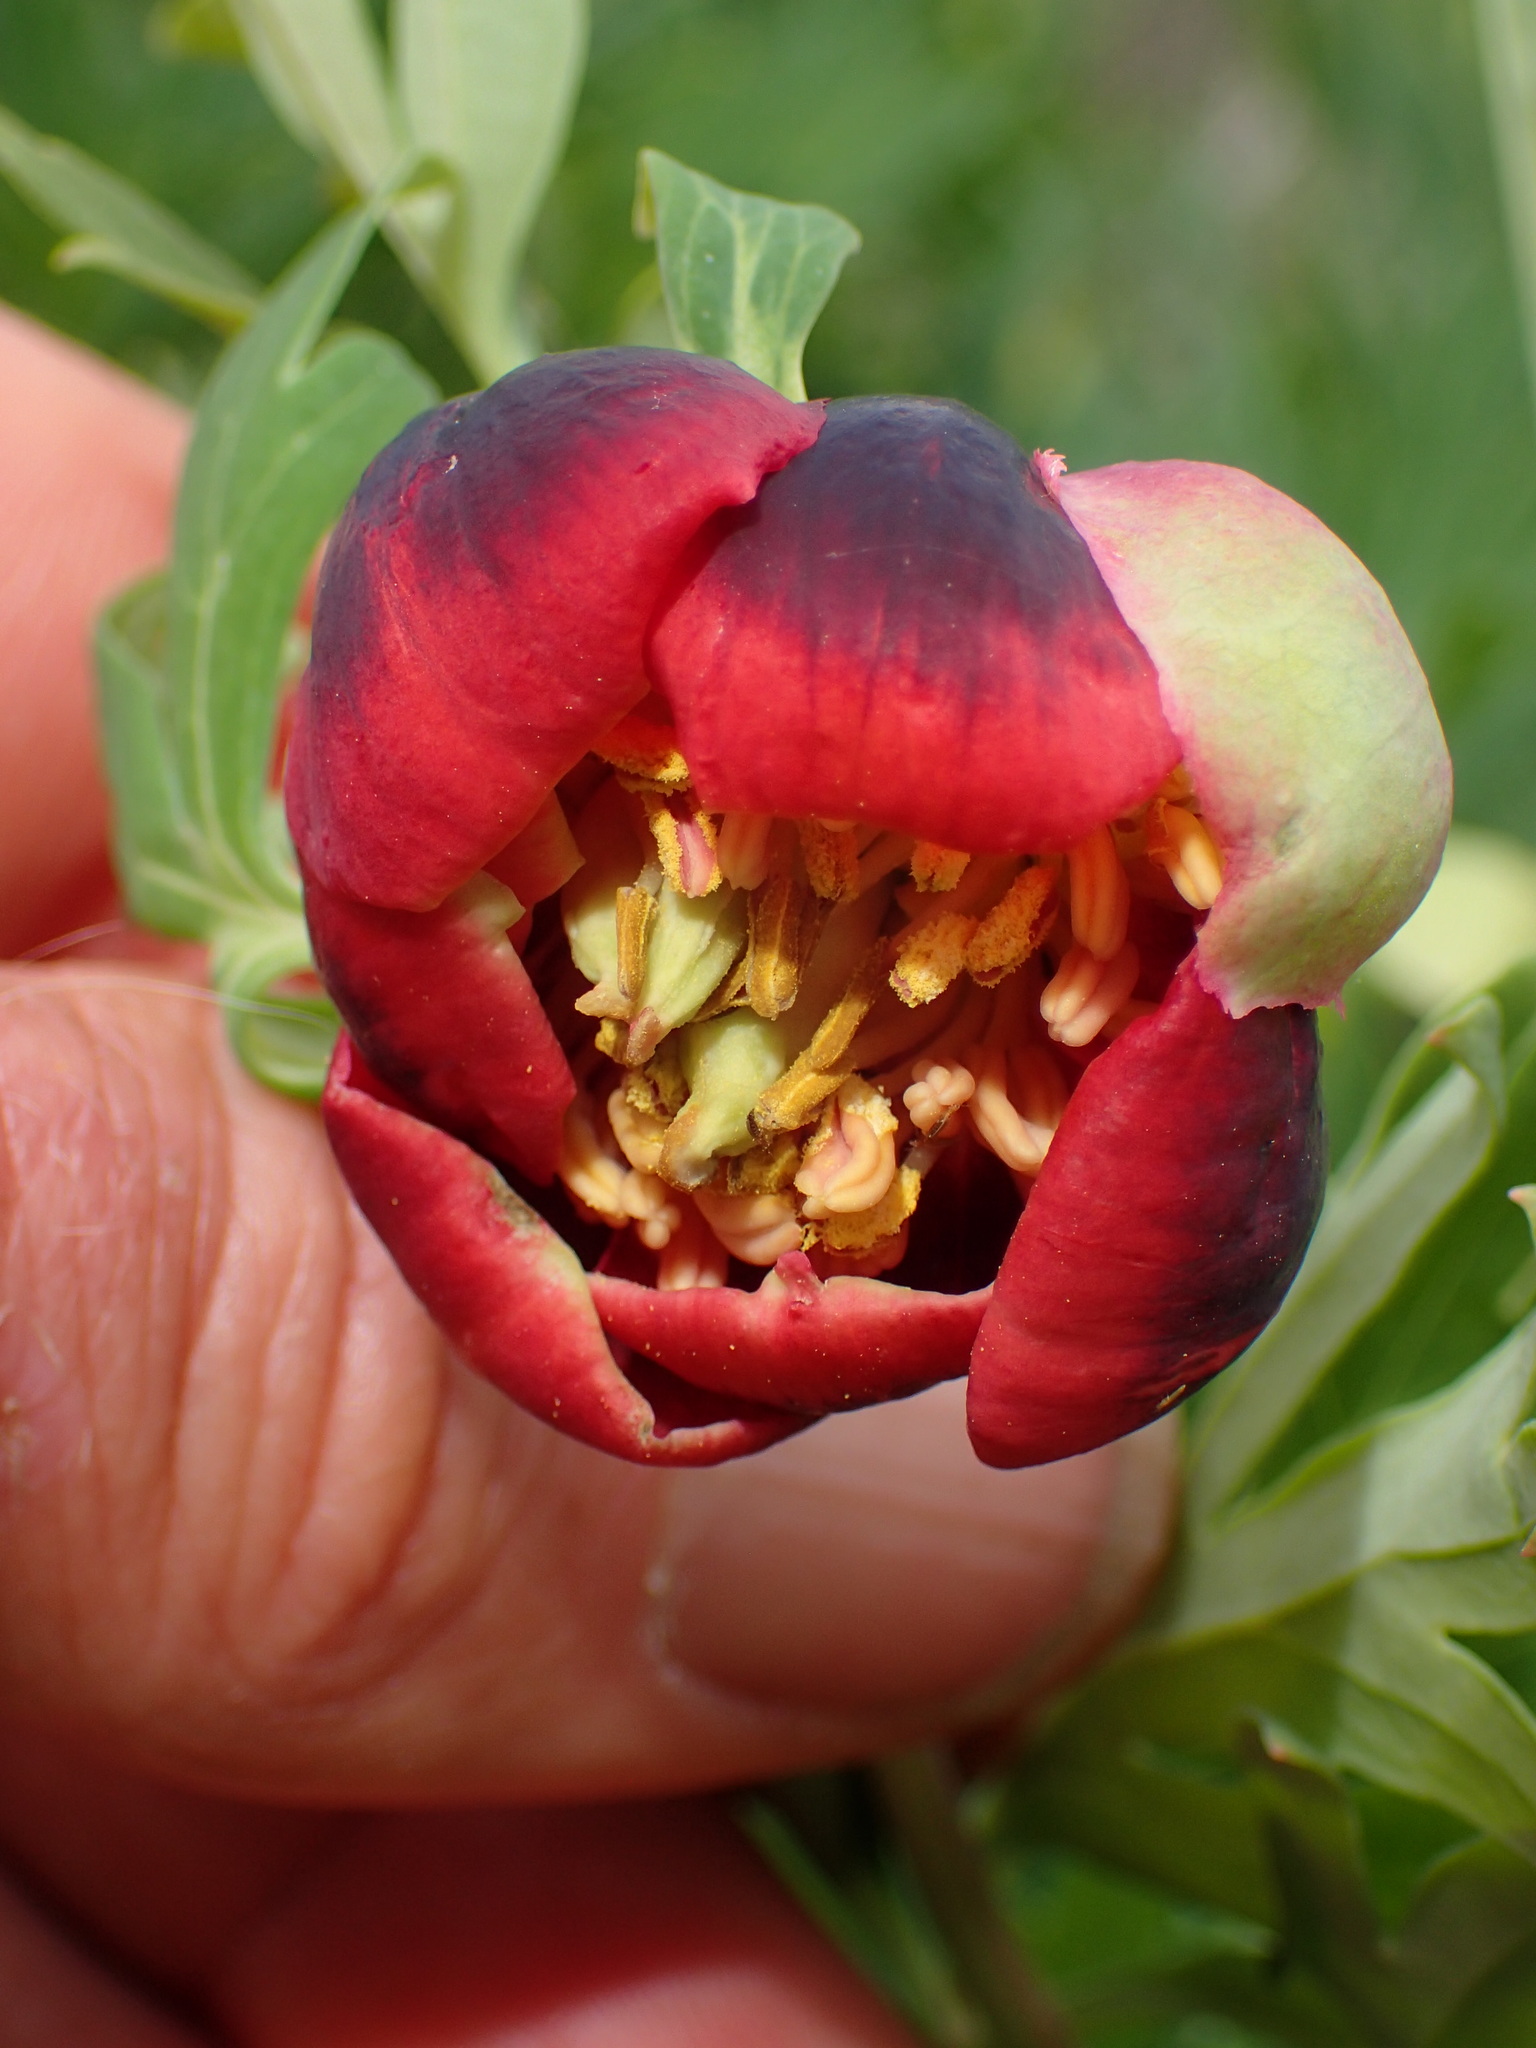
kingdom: Plantae
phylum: Tracheophyta
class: Magnoliopsida
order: Saxifragales
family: Paeoniaceae
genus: Paeonia
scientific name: Paeonia californica
